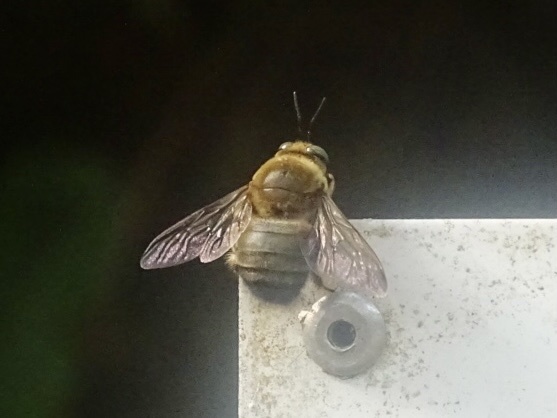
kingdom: Animalia
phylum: Arthropoda
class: Insecta
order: Hymenoptera
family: Apidae
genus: Xylocopa
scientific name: Xylocopa dejeanii
